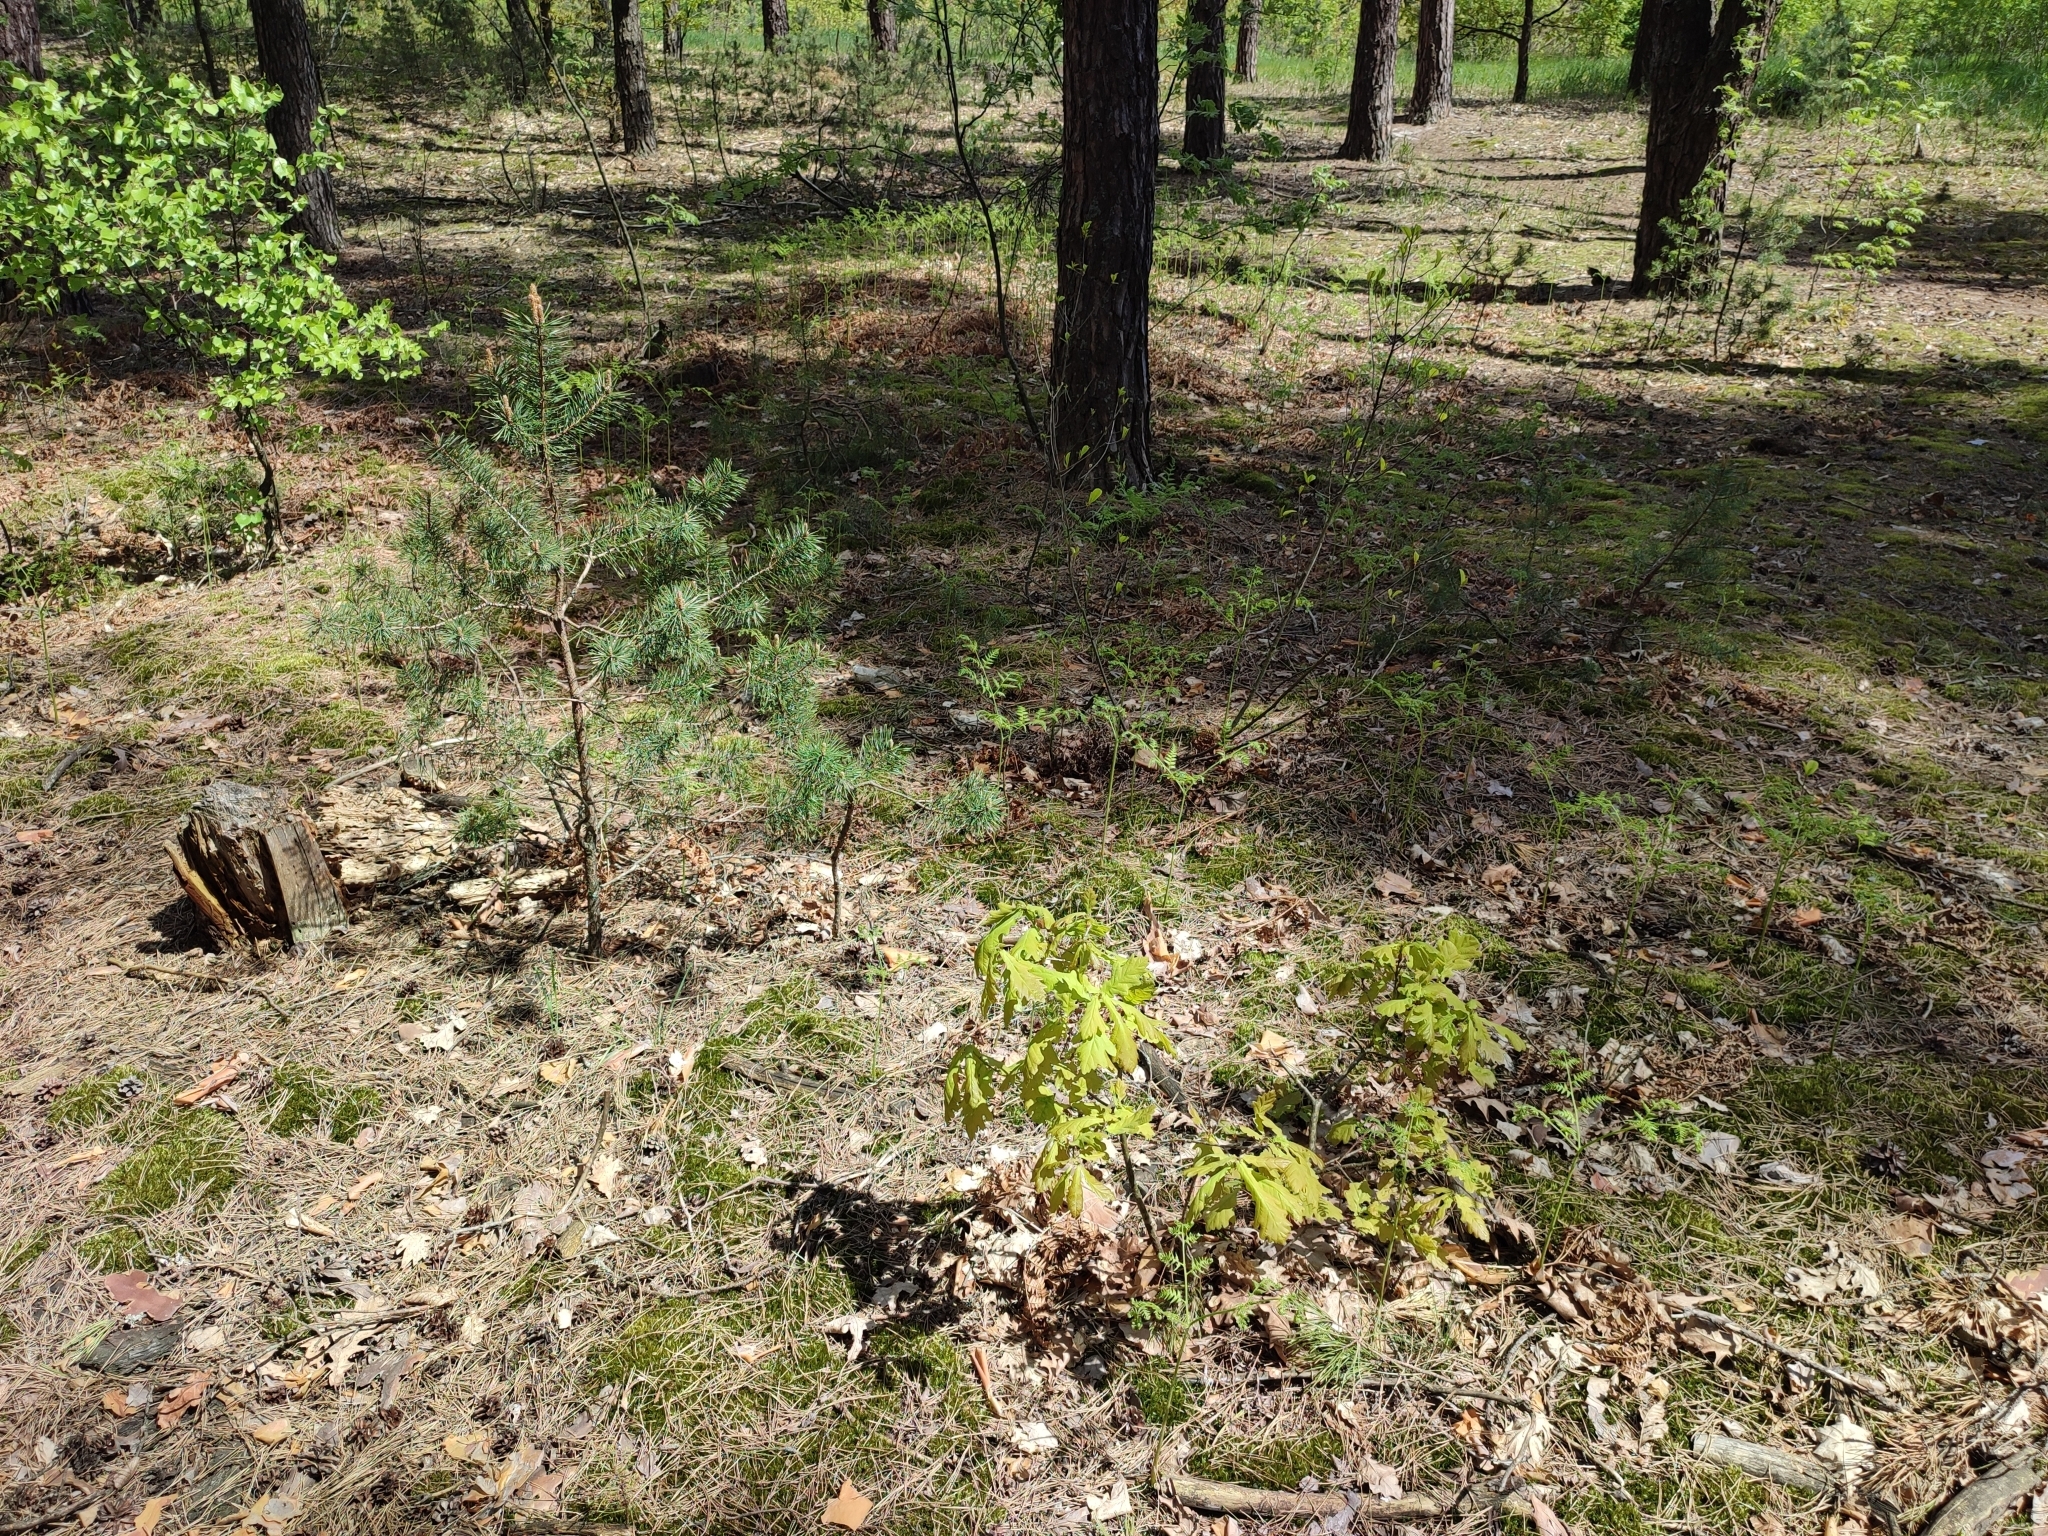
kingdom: Plantae
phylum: Tracheophyta
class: Magnoliopsida
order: Fagales
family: Fagaceae
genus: Quercus
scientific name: Quercus robur
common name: Pedunculate oak
